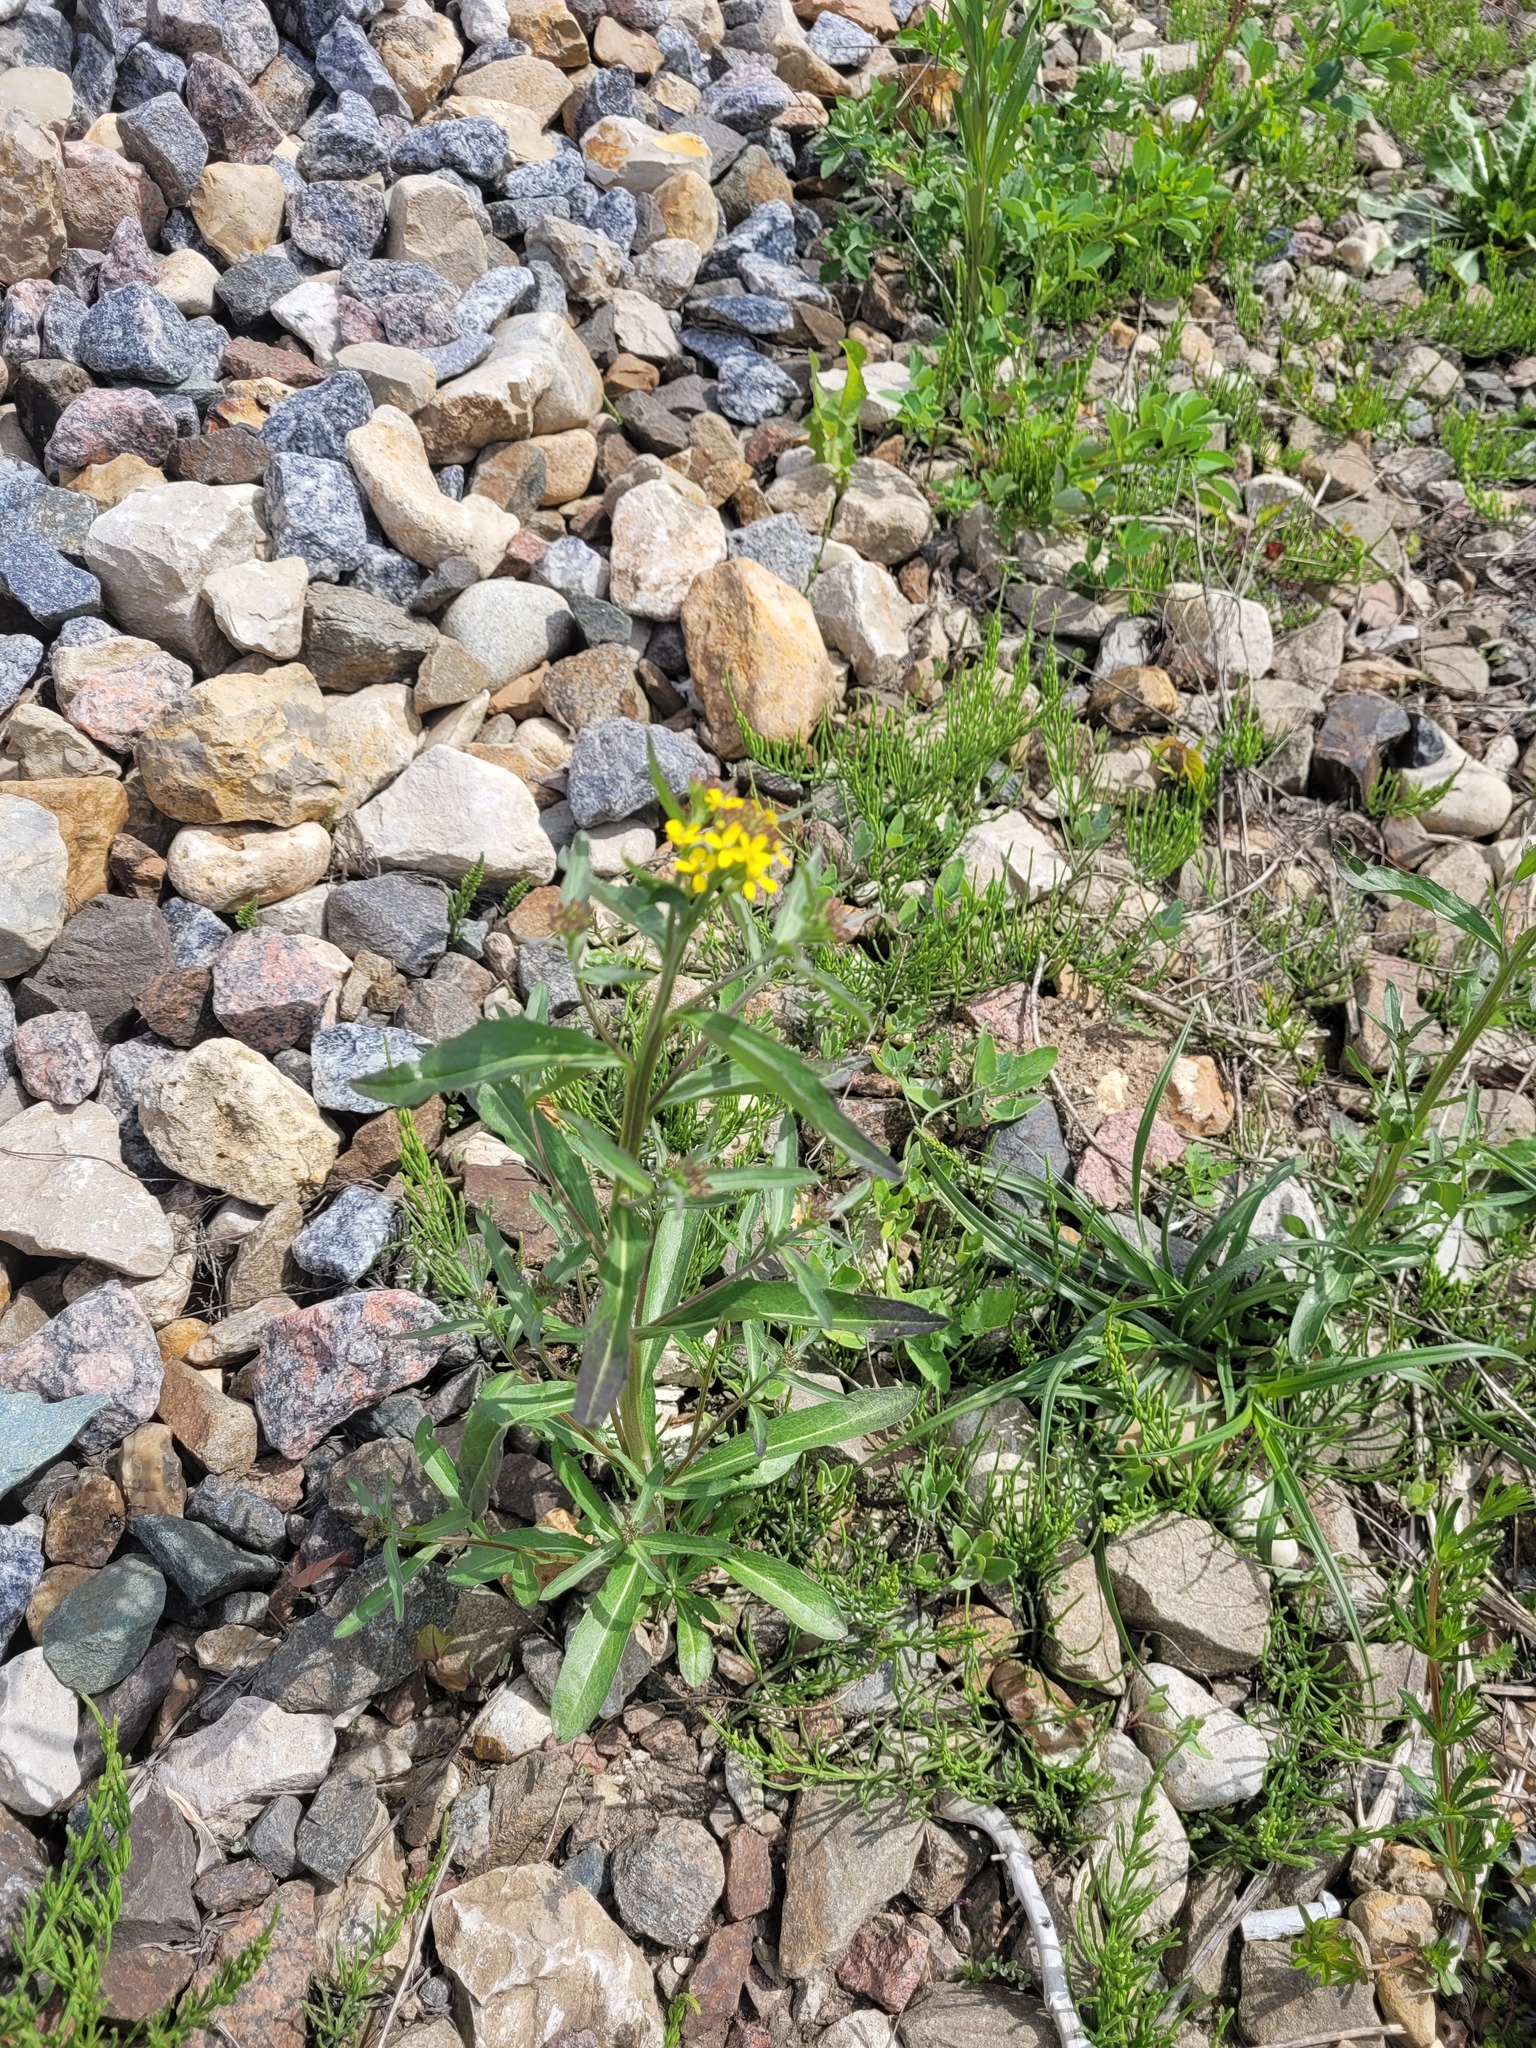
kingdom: Plantae
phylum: Tracheophyta
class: Magnoliopsida
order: Brassicales
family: Brassicaceae
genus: Erysimum
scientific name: Erysimum hieraciifolium
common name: European wallflower
